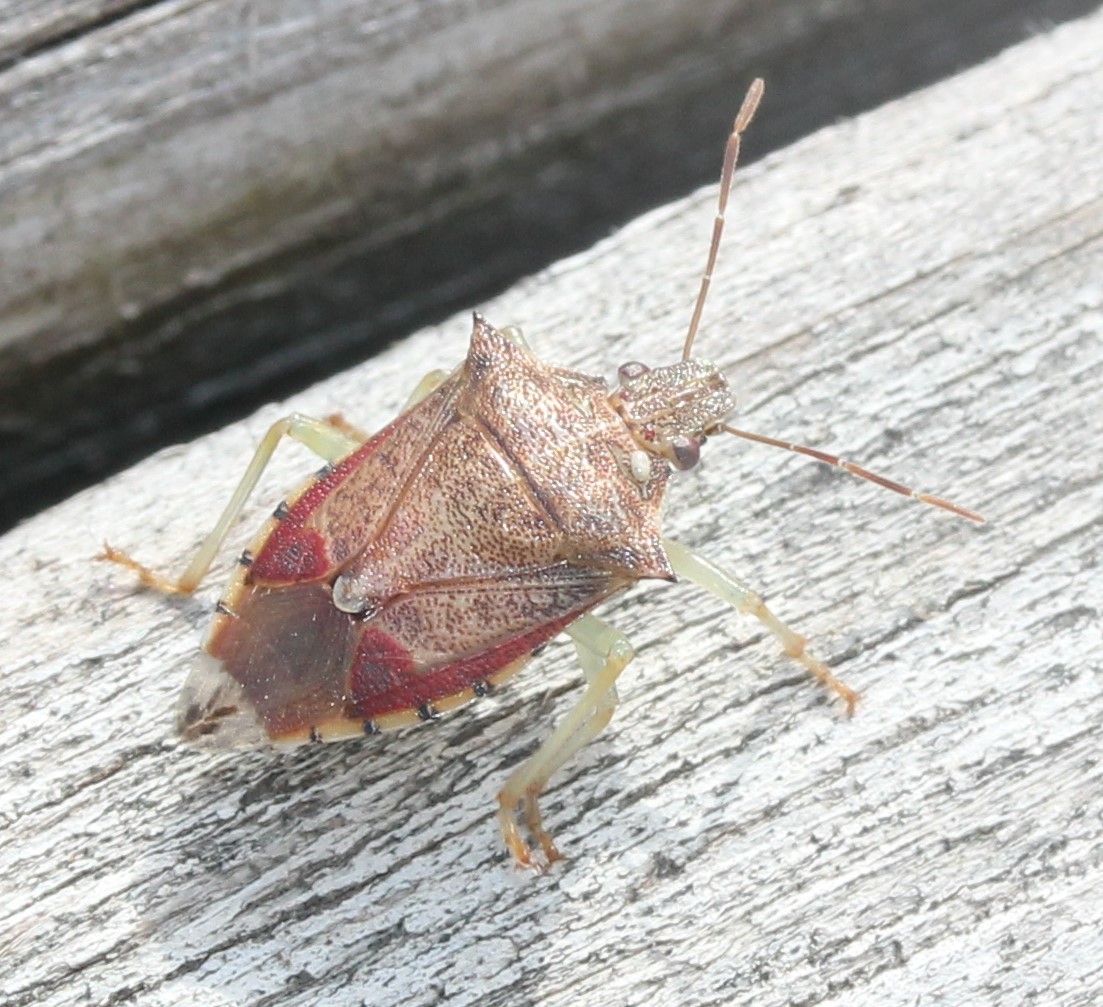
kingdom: Animalia
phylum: Arthropoda
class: Insecta
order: Hemiptera
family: Pentatomidae
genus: Podisus
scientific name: Podisus maculiventris
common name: Spined soldier bug
